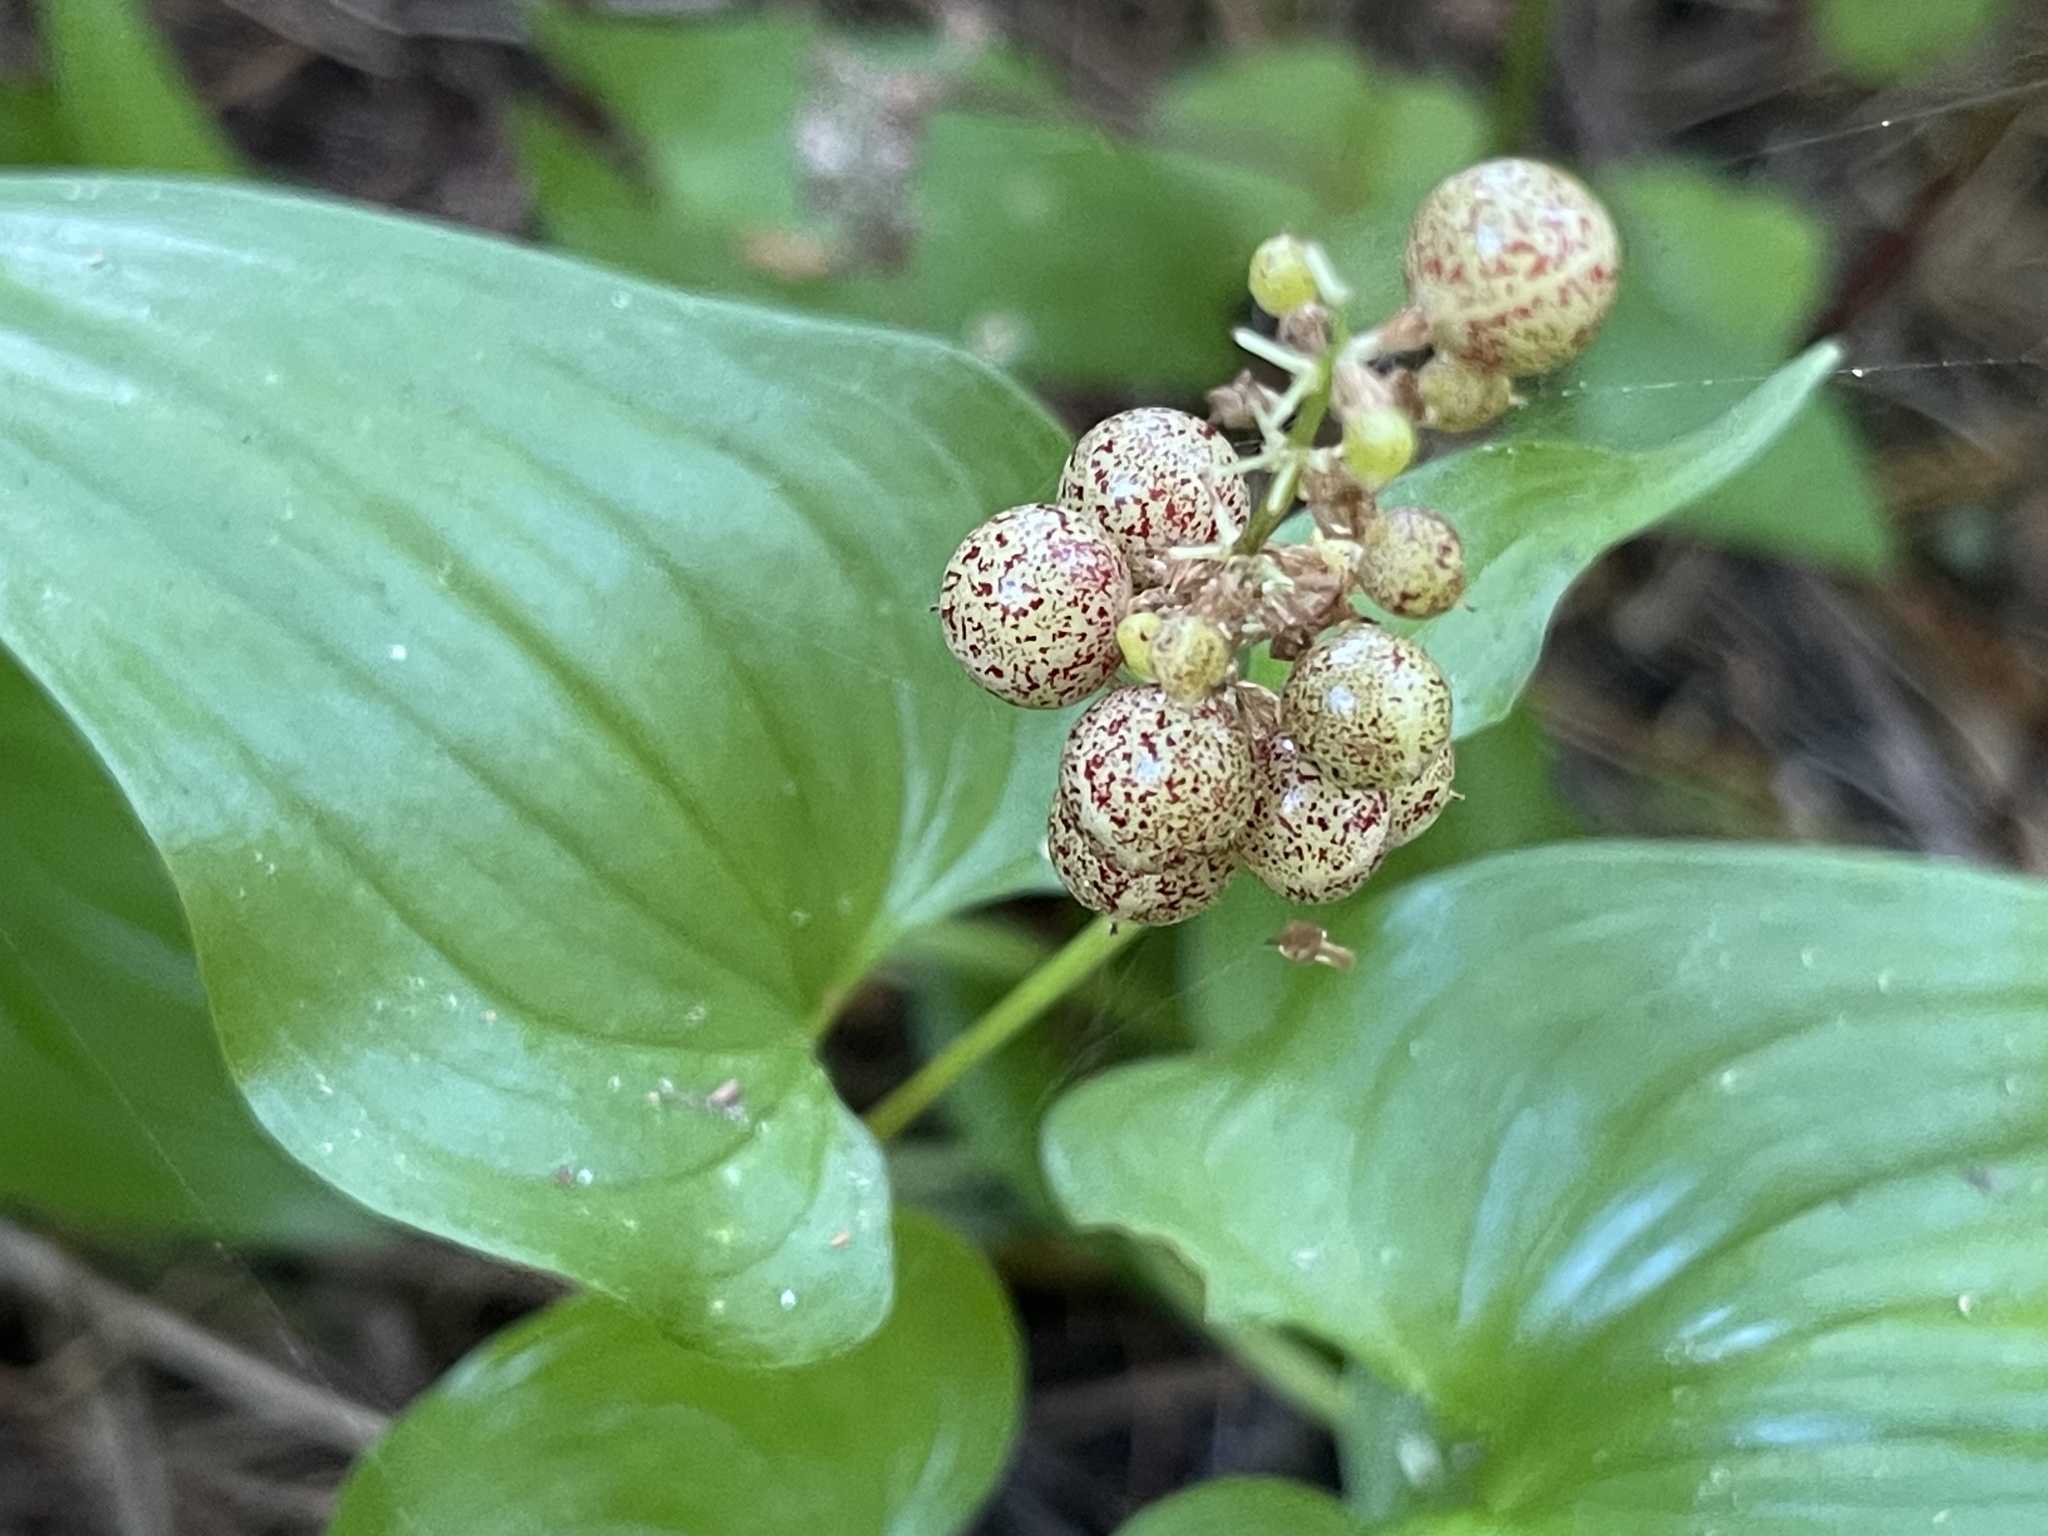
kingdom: Plantae
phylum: Tracheophyta
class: Liliopsida
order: Asparagales
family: Asparagaceae
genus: Maianthemum
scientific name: Maianthemum dilatatum
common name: False lily-of-the-valley
